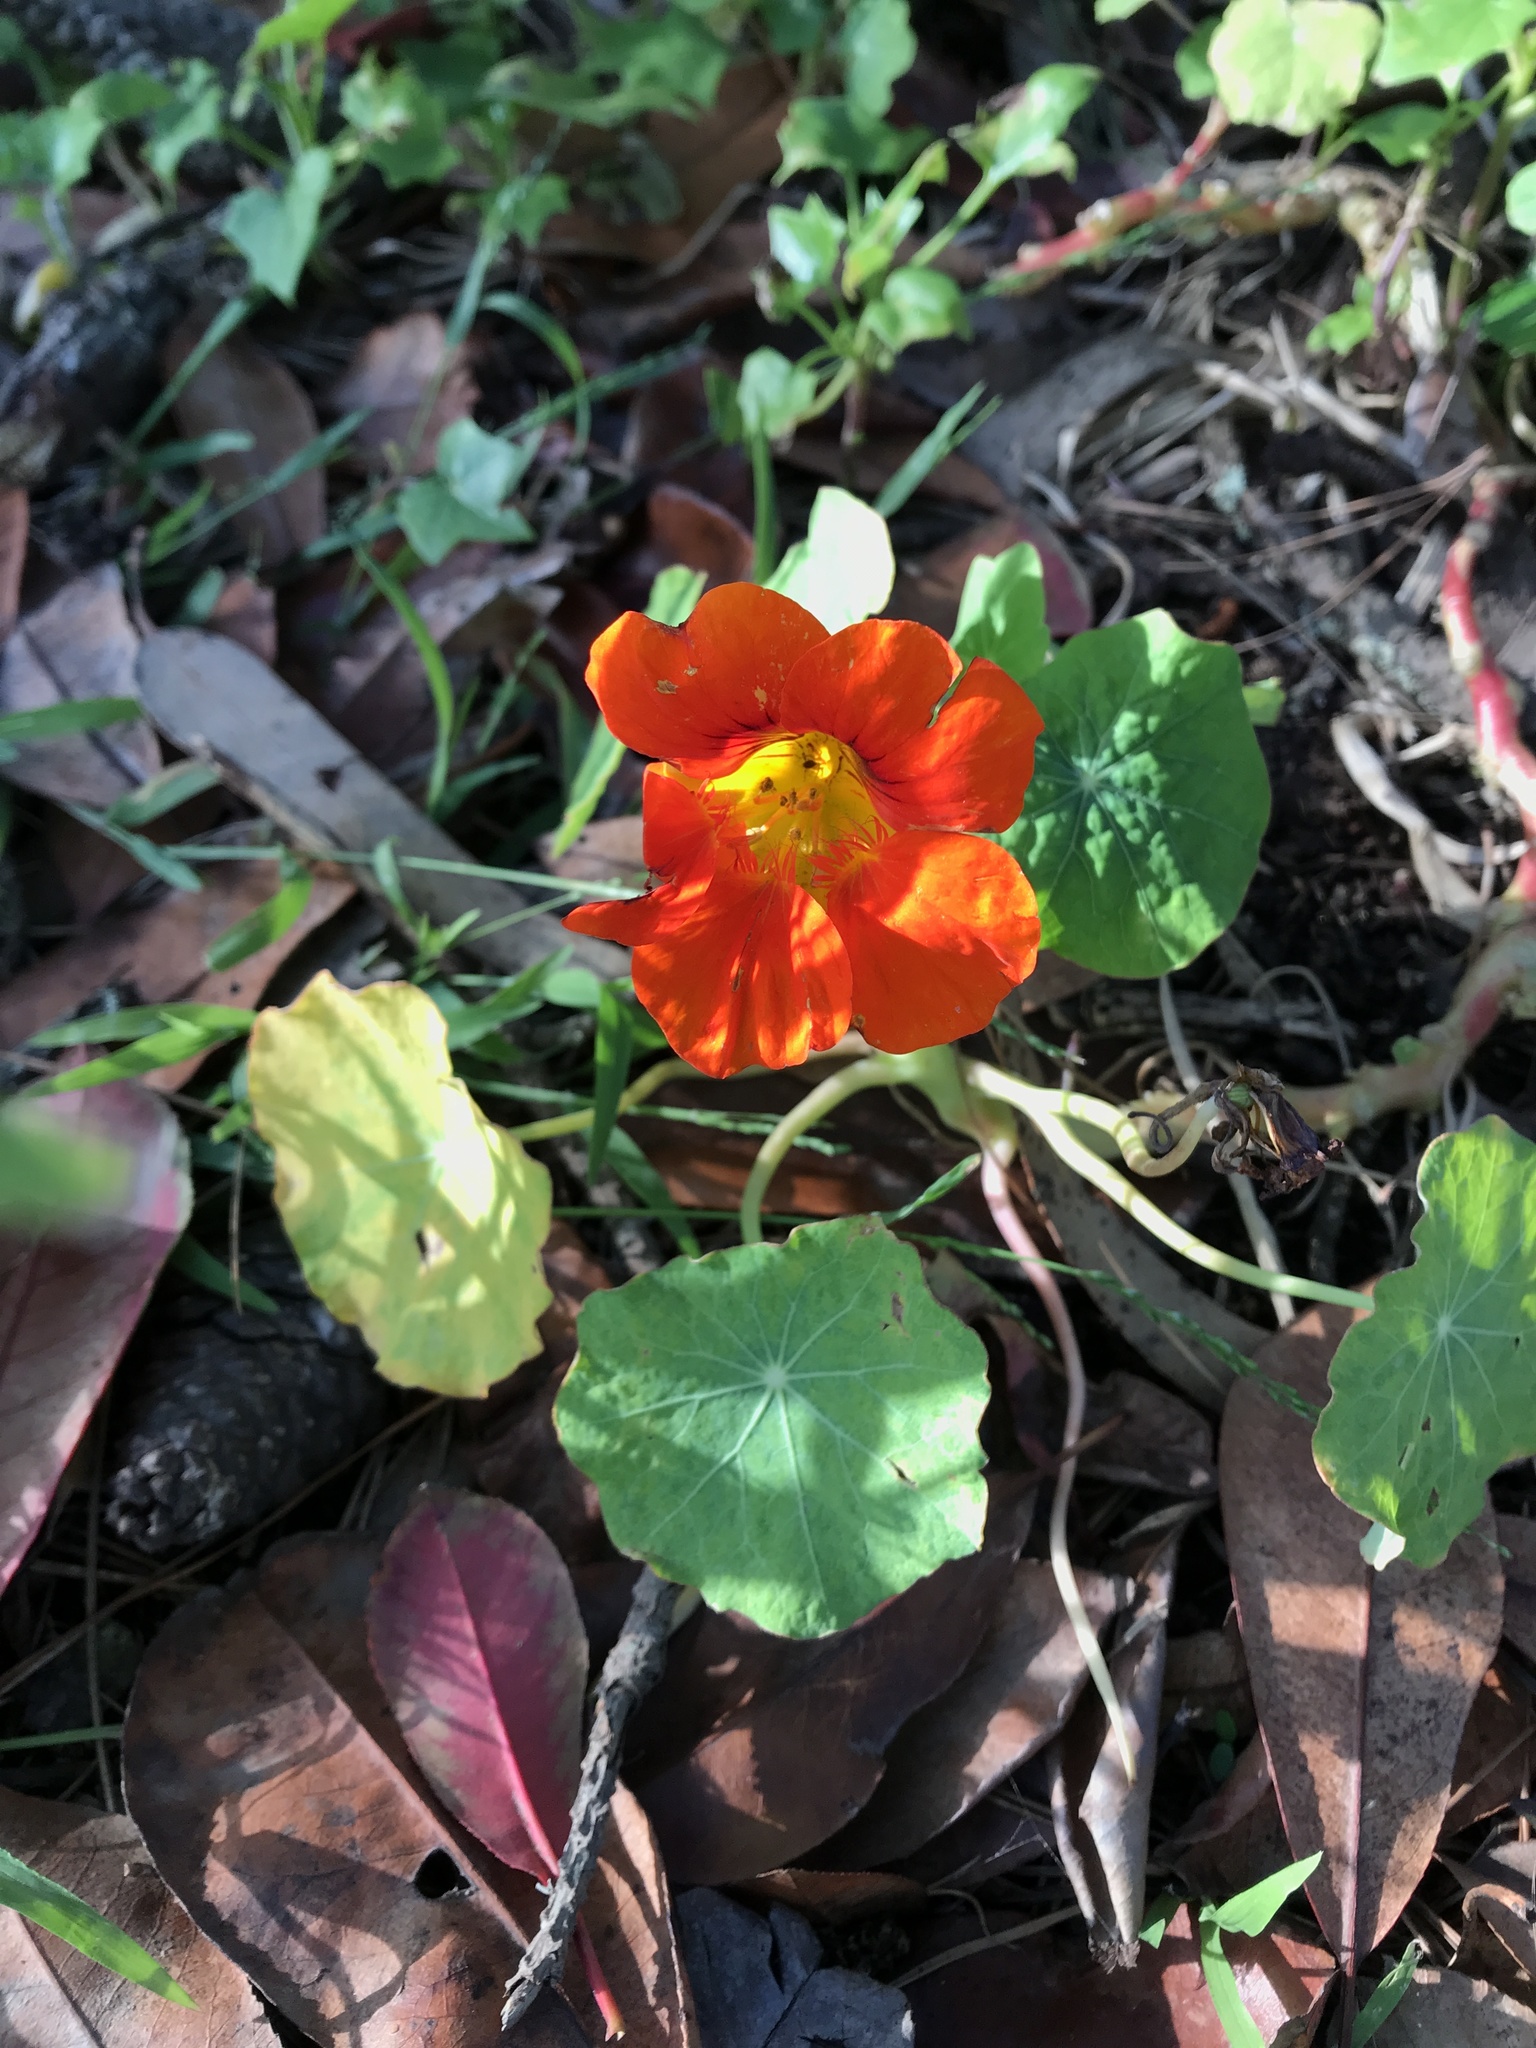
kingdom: Plantae
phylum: Tracheophyta
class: Magnoliopsida
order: Brassicales
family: Tropaeolaceae
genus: Tropaeolum
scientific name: Tropaeolum majus
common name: Nasturtium
